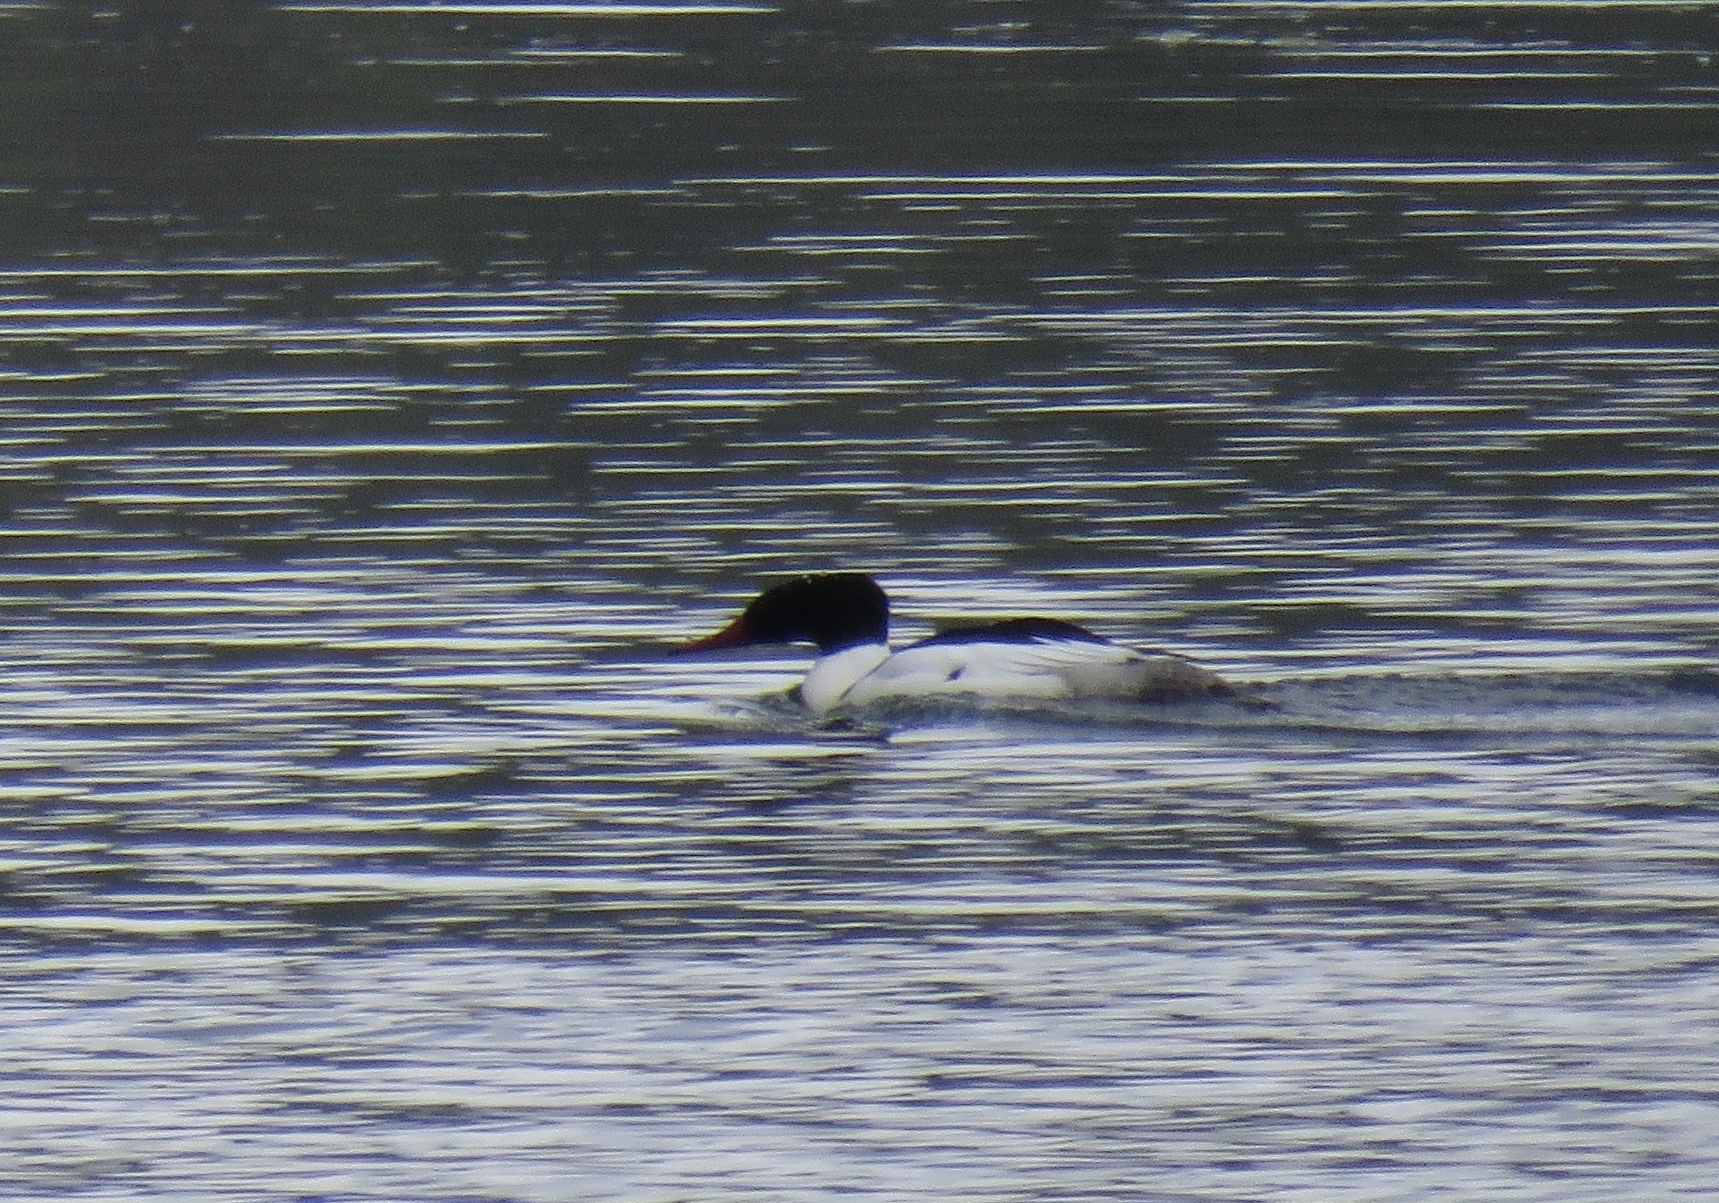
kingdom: Animalia
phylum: Chordata
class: Aves
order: Anseriformes
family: Anatidae
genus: Mergus
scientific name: Mergus merganser
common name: Common merganser
